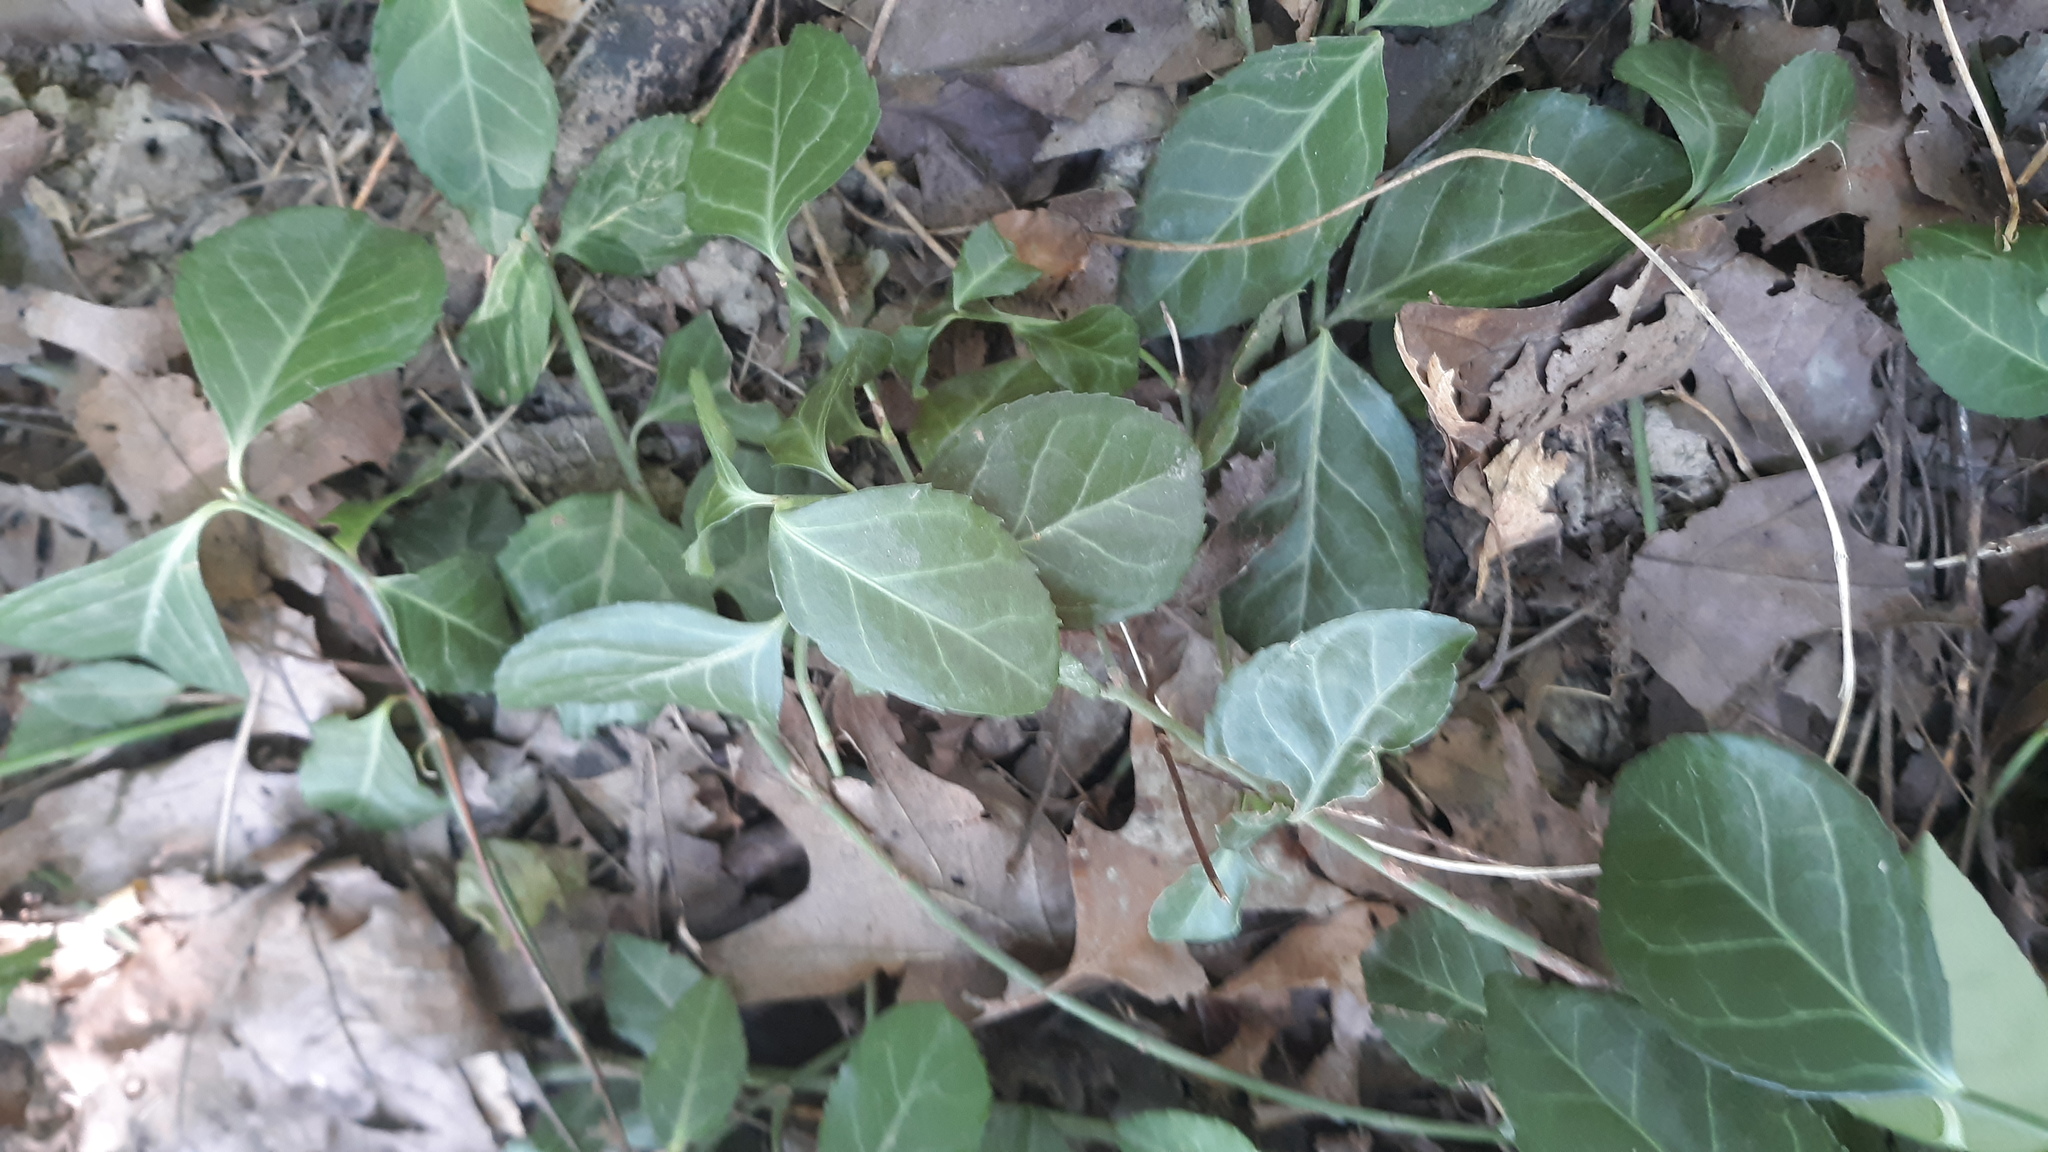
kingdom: Plantae
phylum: Tracheophyta
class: Magnoliopsida
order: Celastrales
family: Celastraceae
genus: Euonymus
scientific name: Euonymus fortunei
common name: Climbing euonymus
